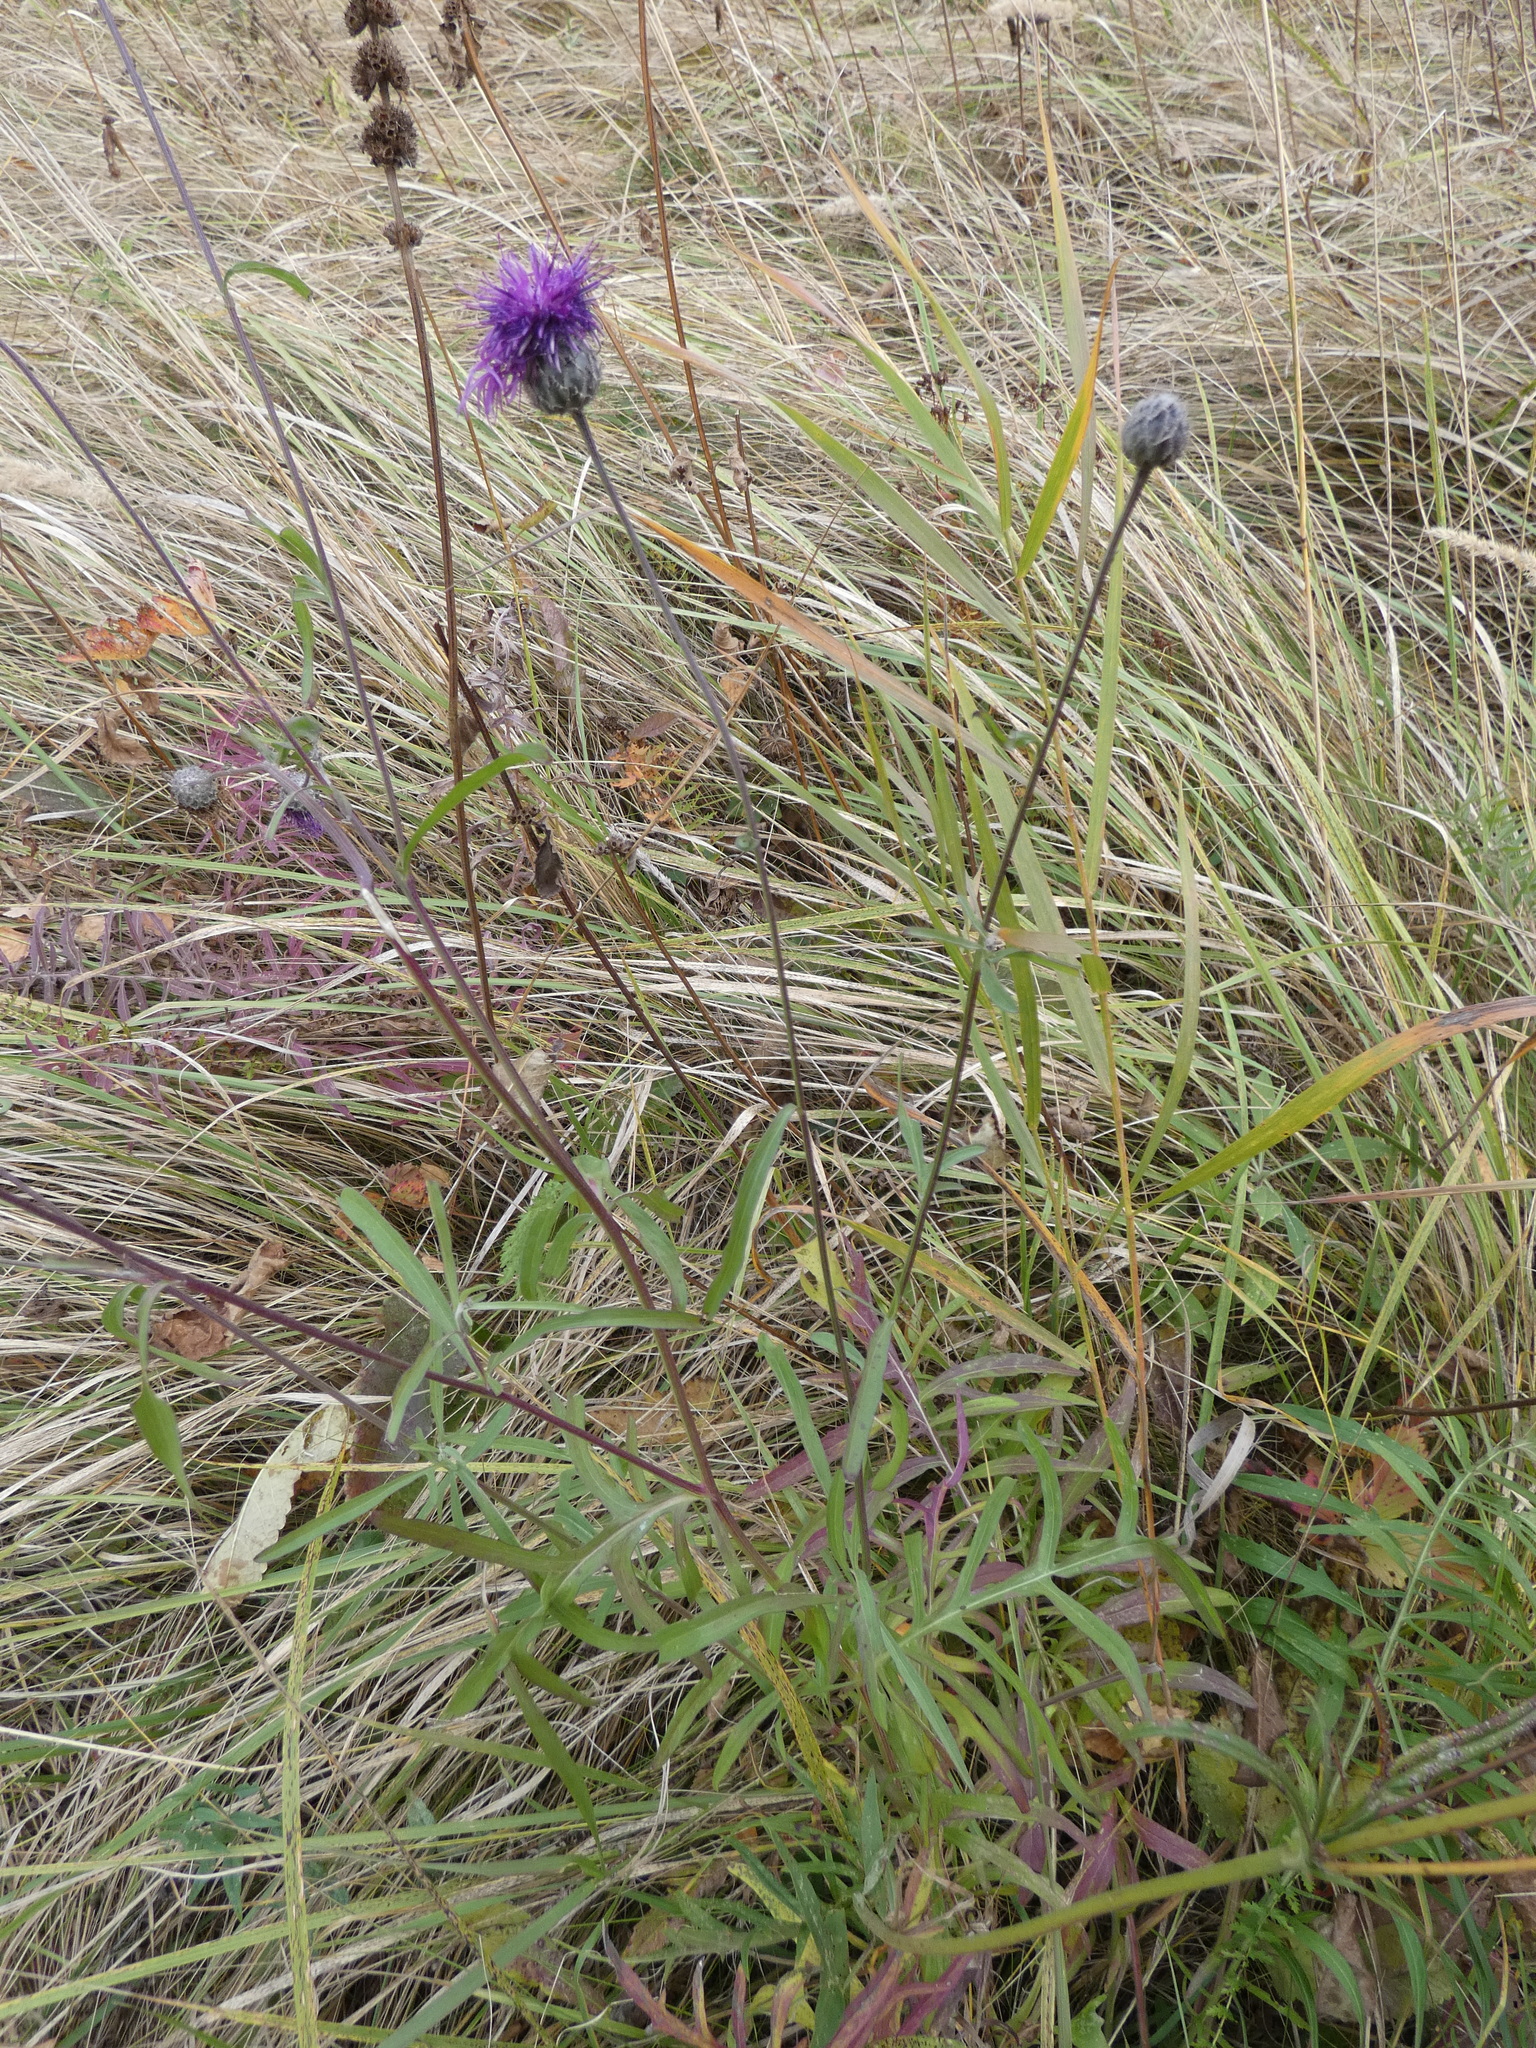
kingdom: Plantae
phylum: Tracheophyta
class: Magnoliopsida
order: Asterales
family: Asteraceae
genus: Centaurea
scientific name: Centaurea scabiosa
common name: Greater knapweed
